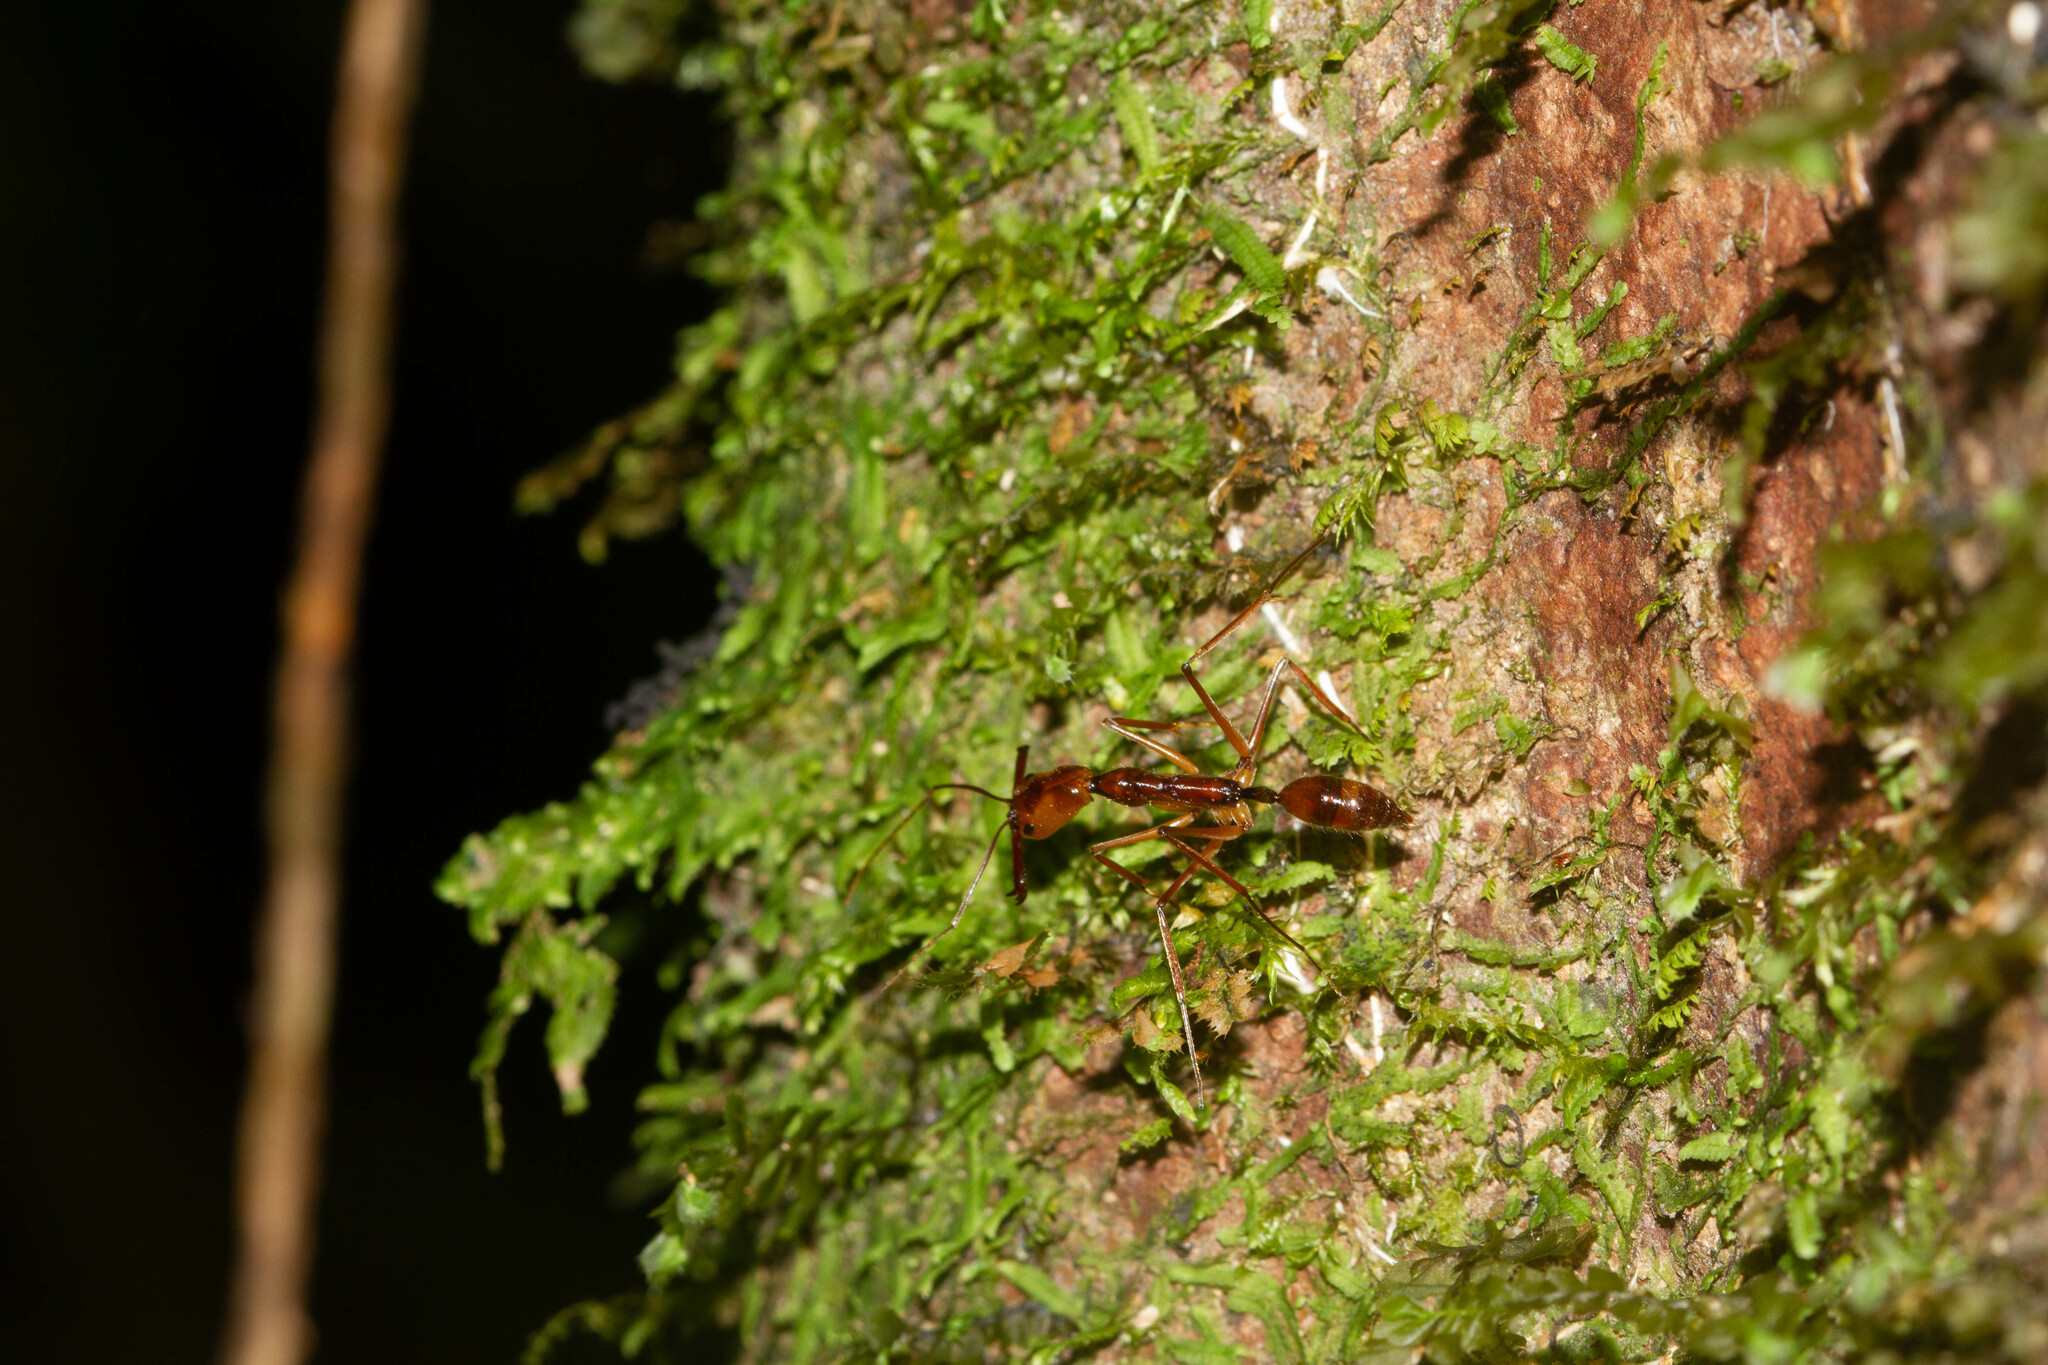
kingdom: Animalia
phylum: Arthropoda
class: Insecta
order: Hymenoptera
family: Formicidae
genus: Odontomachus
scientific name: Odontomachus hastatus
